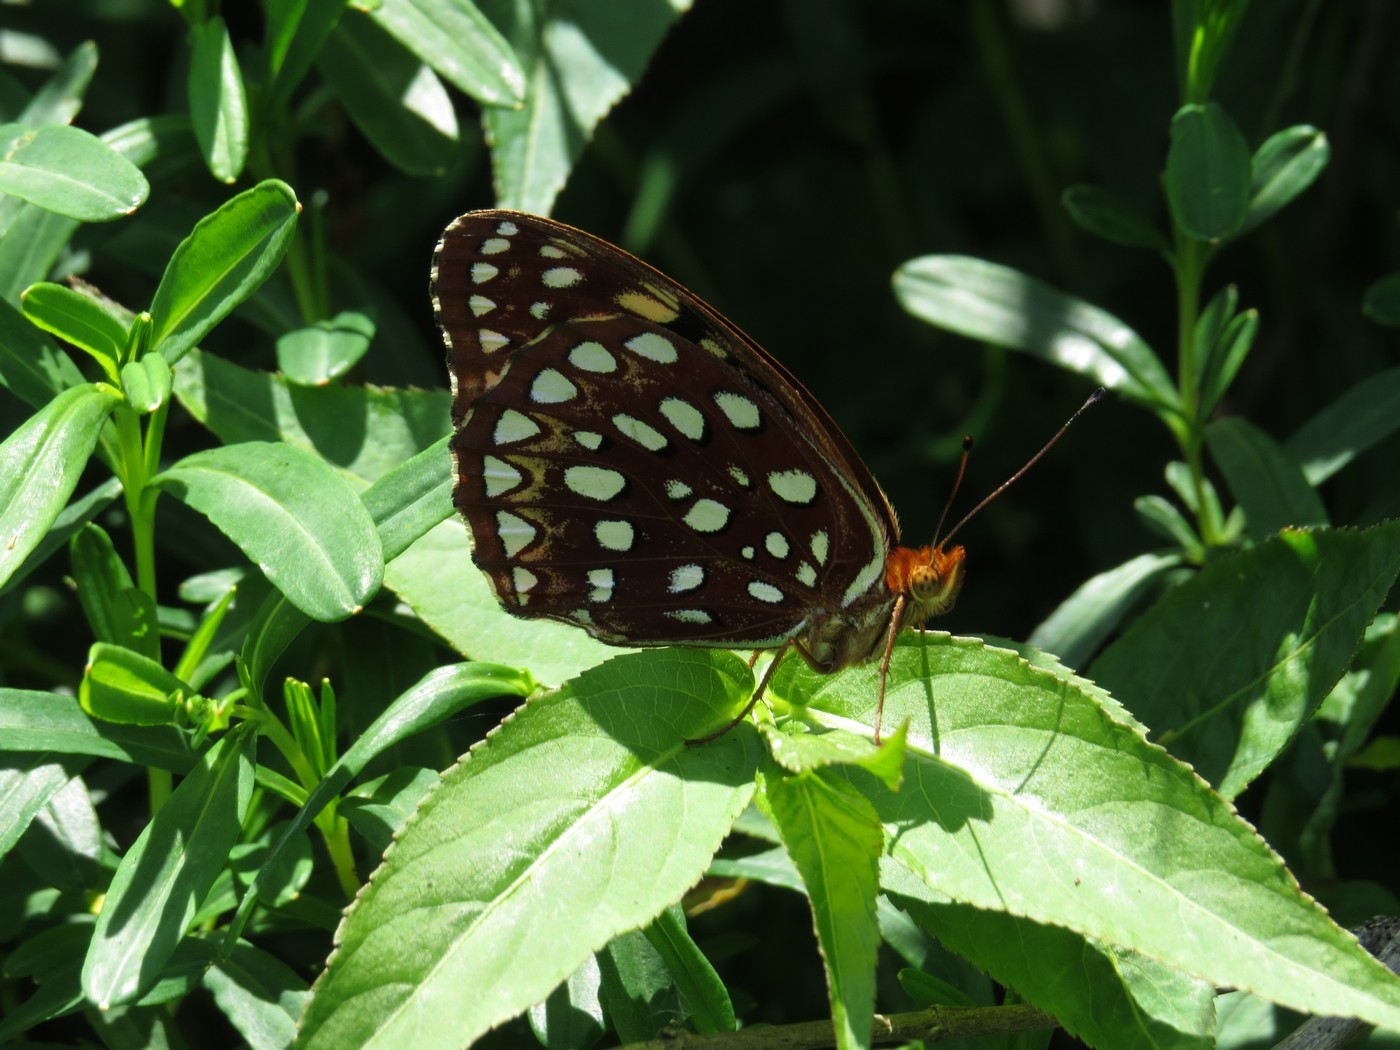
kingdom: Animalia
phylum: Arthropoda
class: Insecta
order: Lepidoptera
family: Nymphalidae
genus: Speyeria
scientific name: Speyeria aphrodite
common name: Aphrodite friitllary
